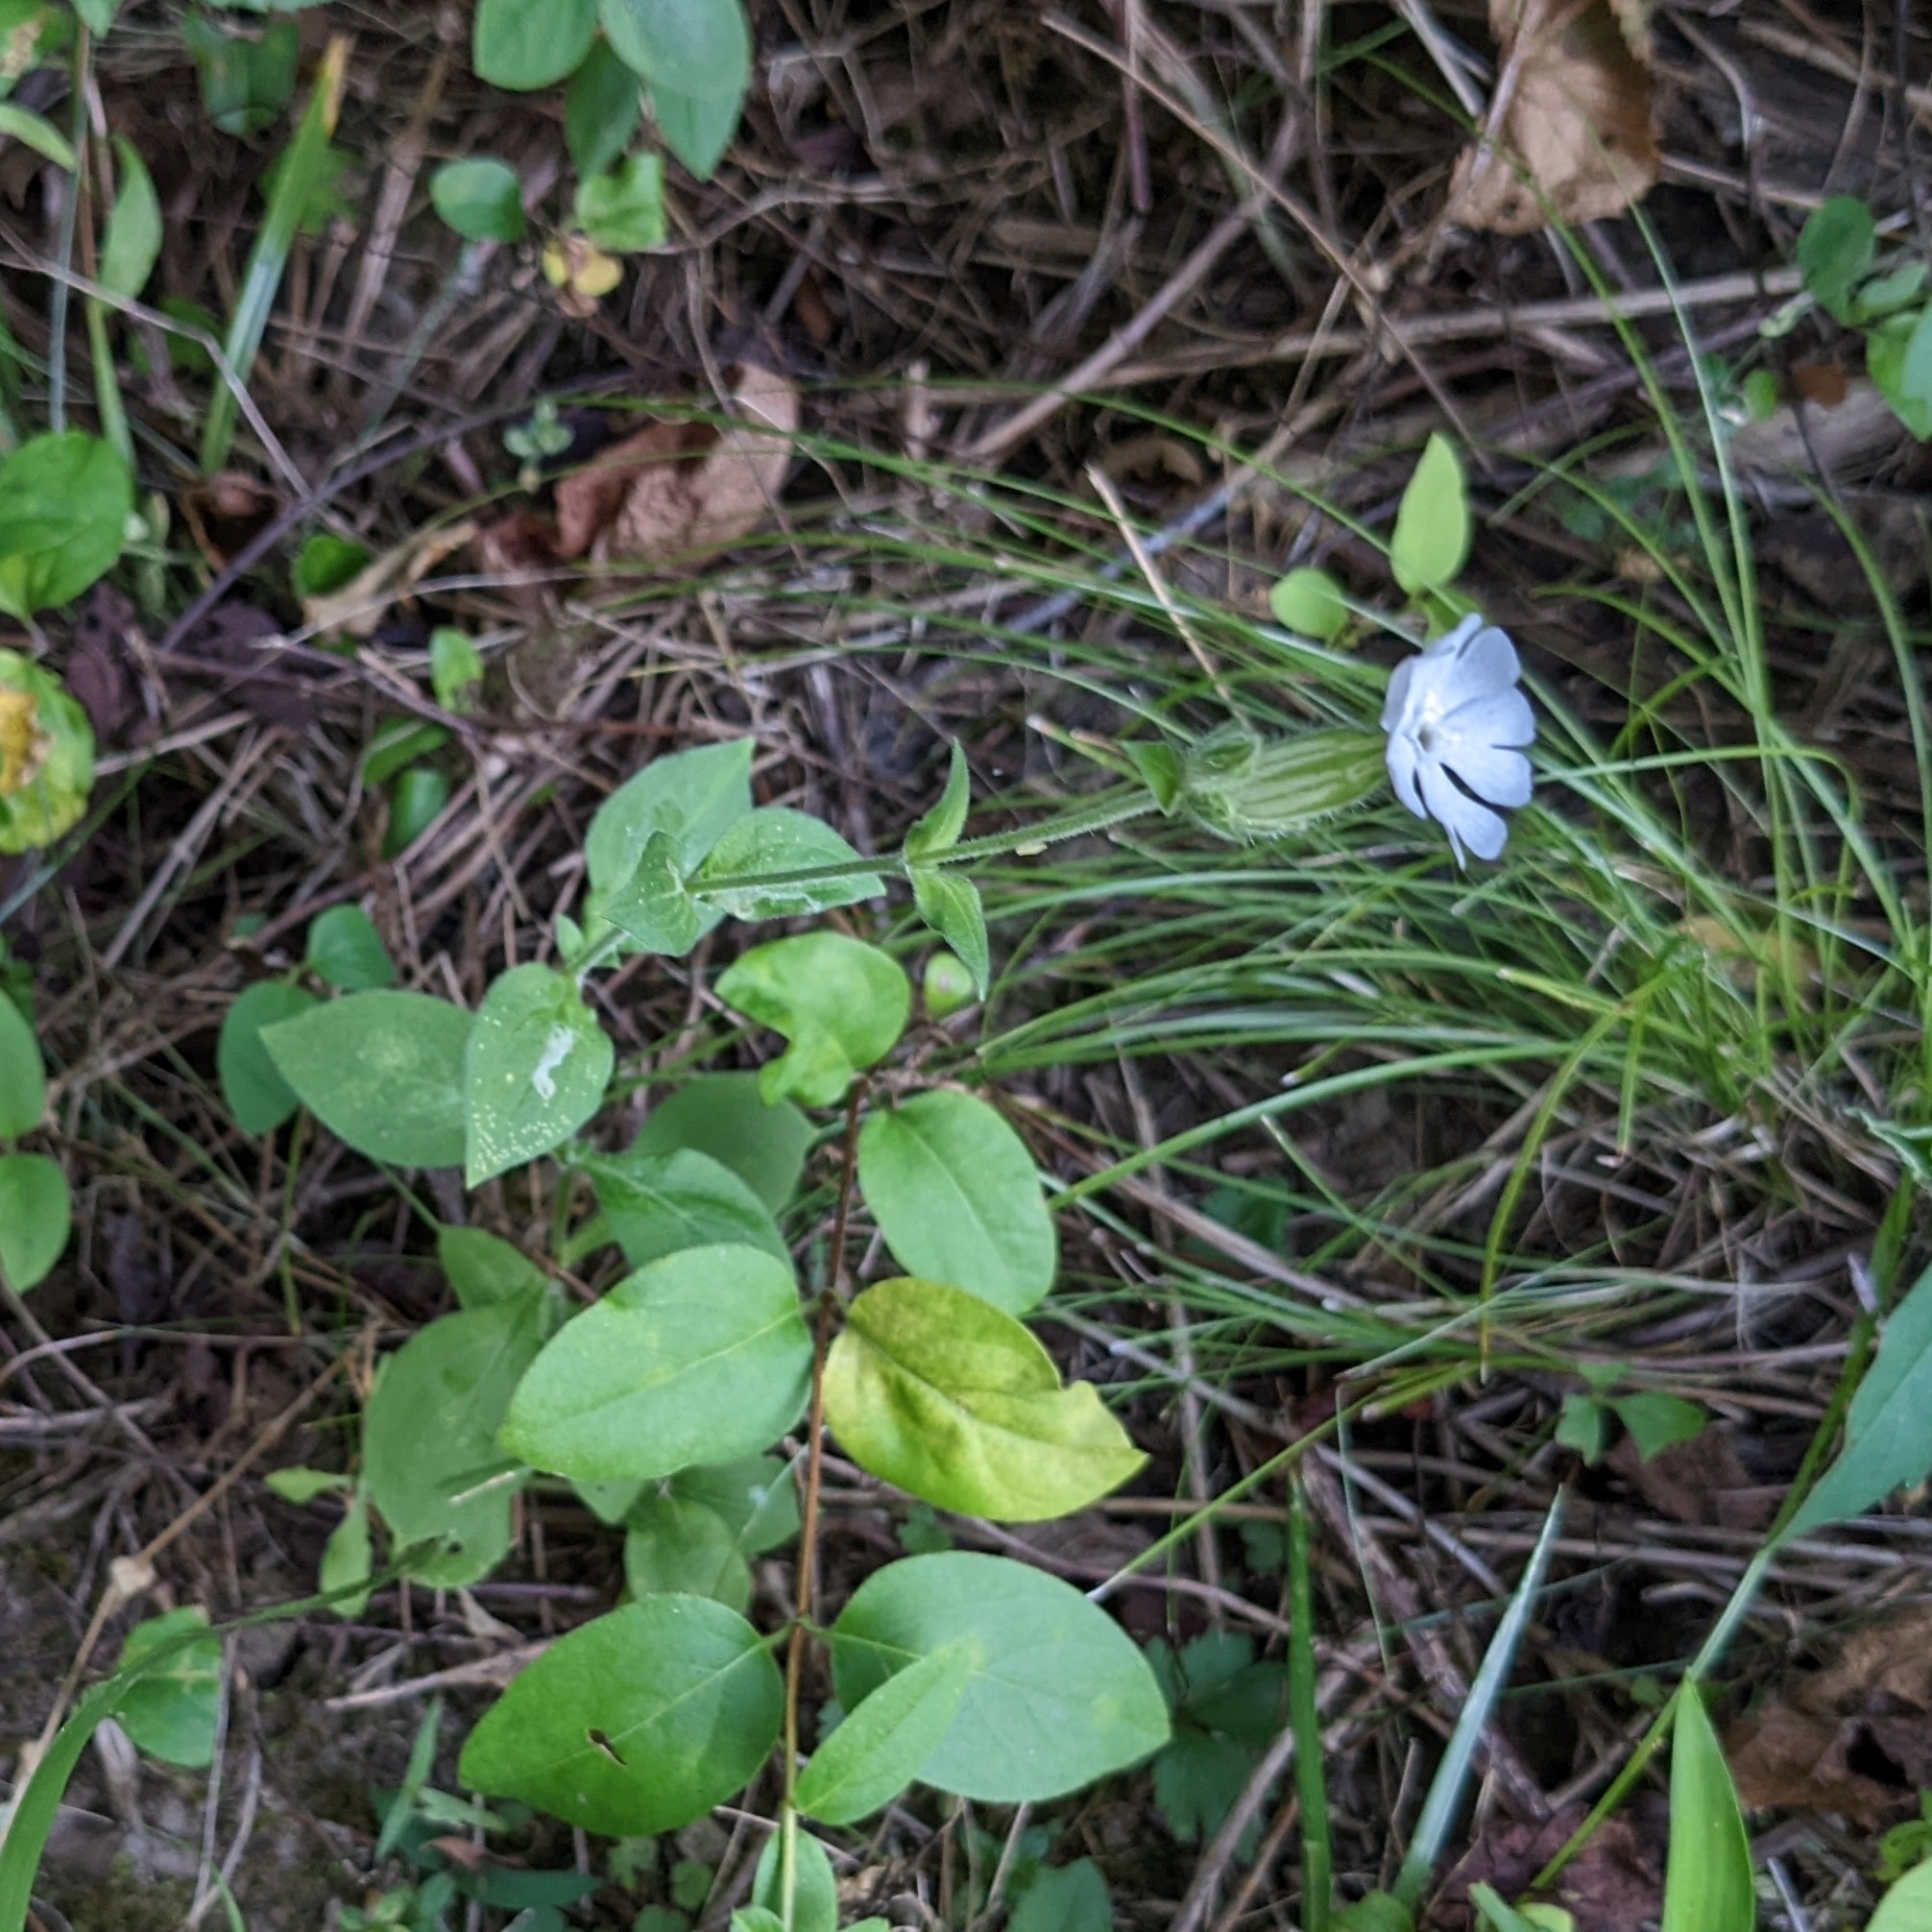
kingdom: Plantae
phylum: Tracheophyta
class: Magnoliopsida
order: Caryophyllales
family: Caryophyllaceae
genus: Silene
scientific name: Silene latifolia
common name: White campion
